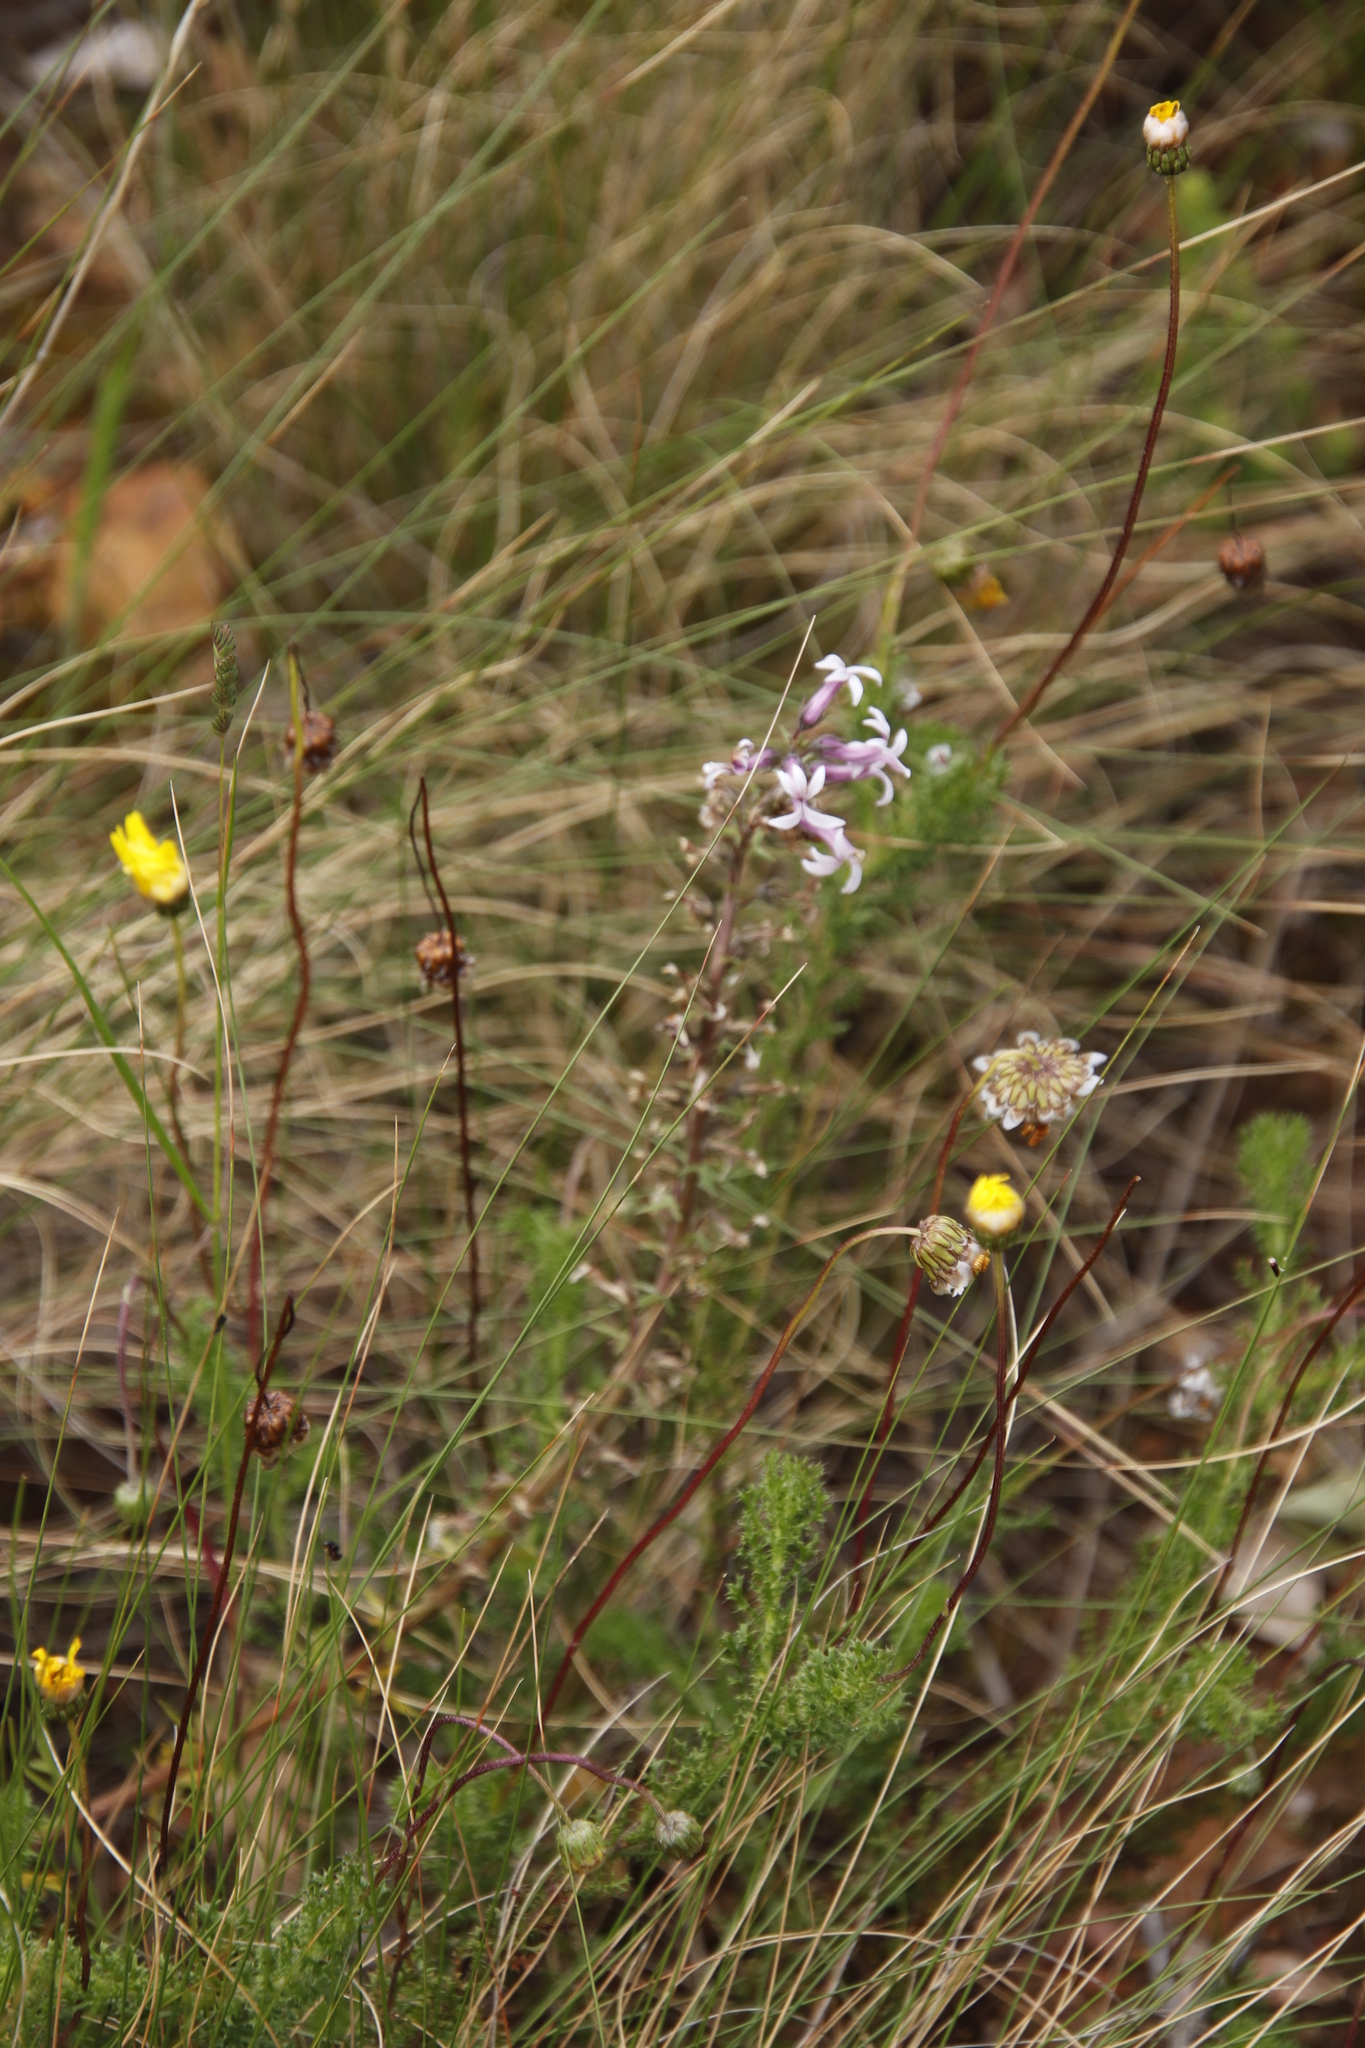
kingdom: Plantae
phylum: Tracheophyta
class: Magnoliopsida
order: Asterales
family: Campanulaceae
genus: Cyphia
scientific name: Cyphia bulbosa
